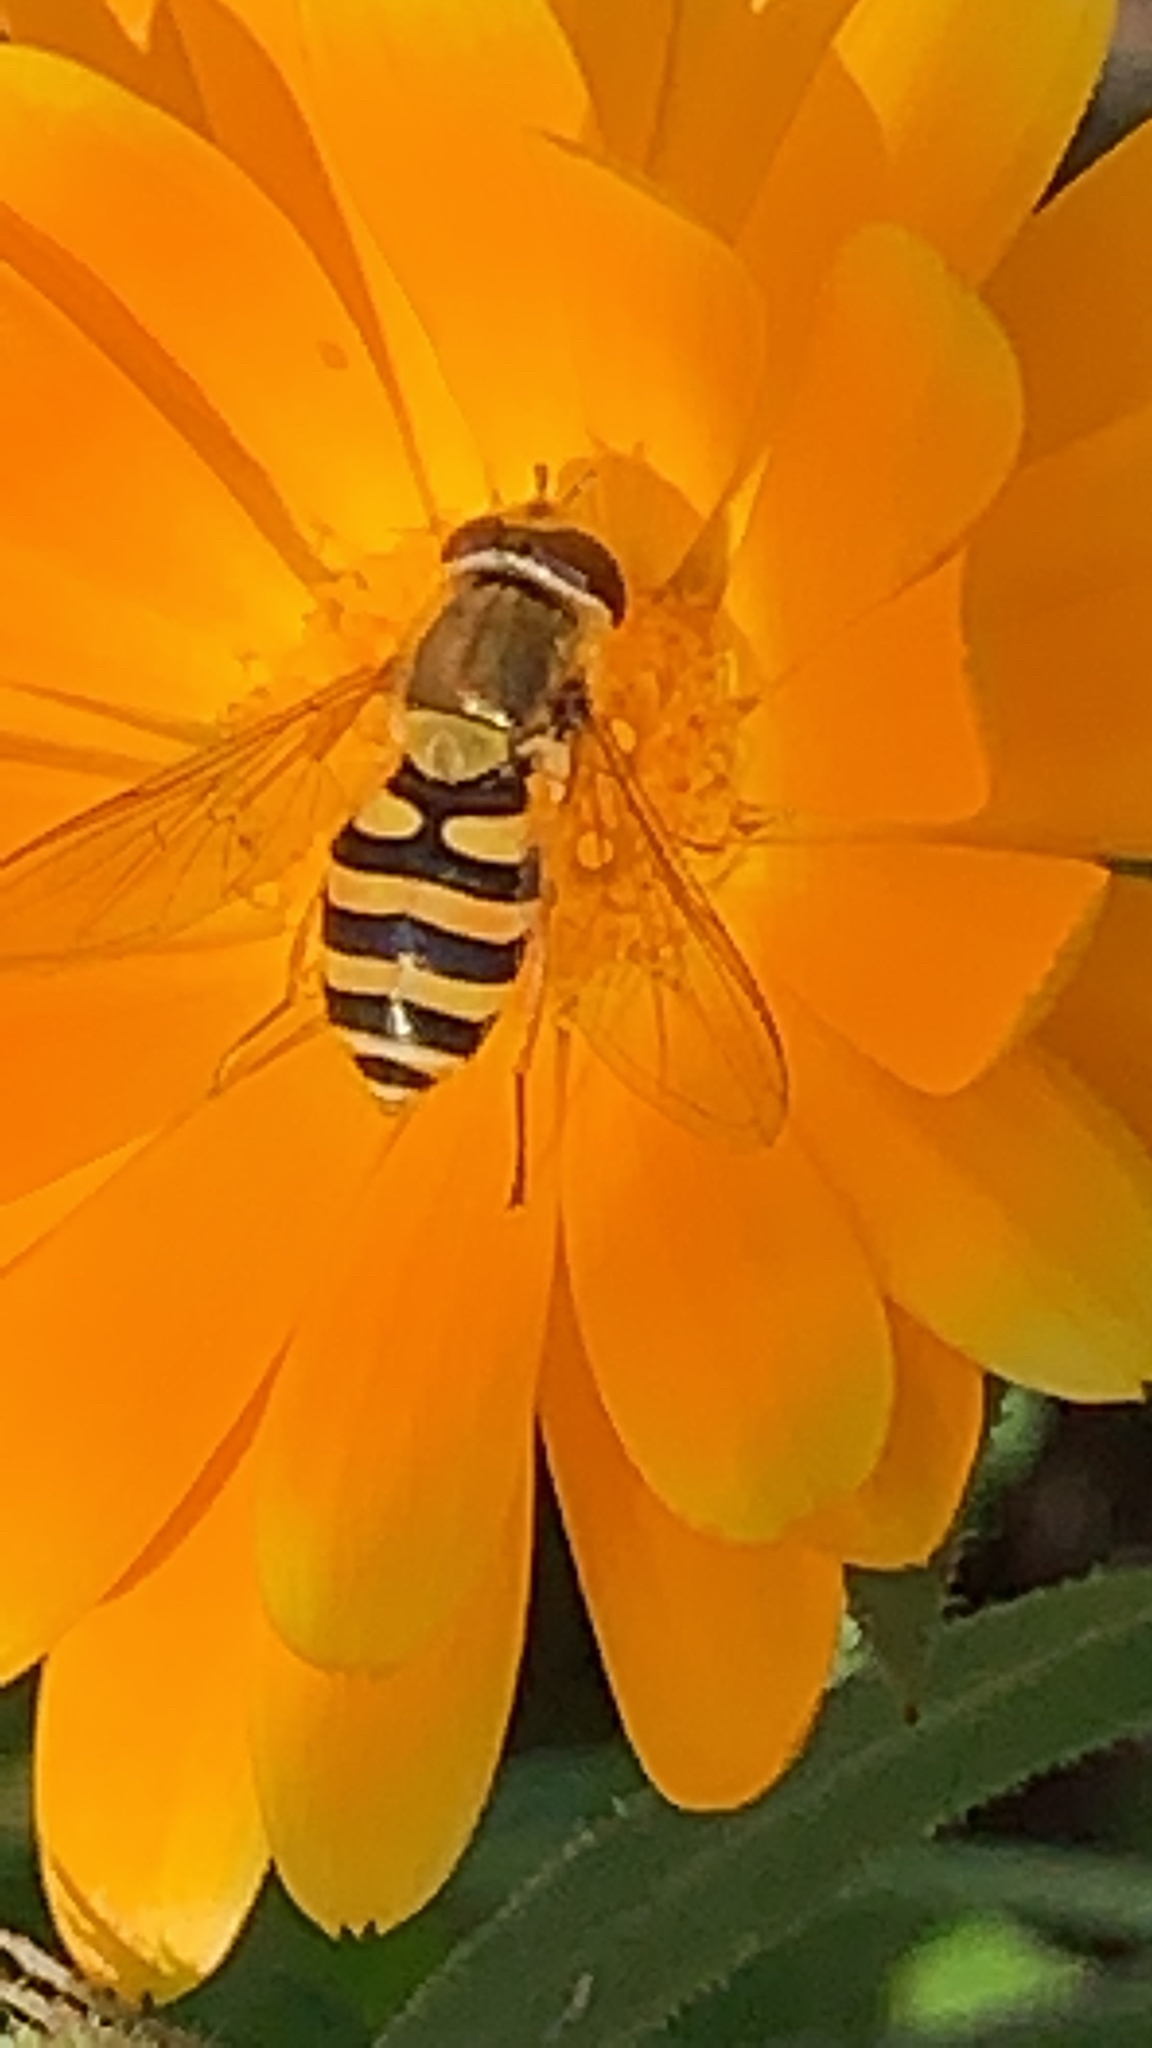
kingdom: Animalia
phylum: Arthropoda
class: Insecta
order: Diptera
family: Syrphidae
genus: Syrphus
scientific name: Syrphus
